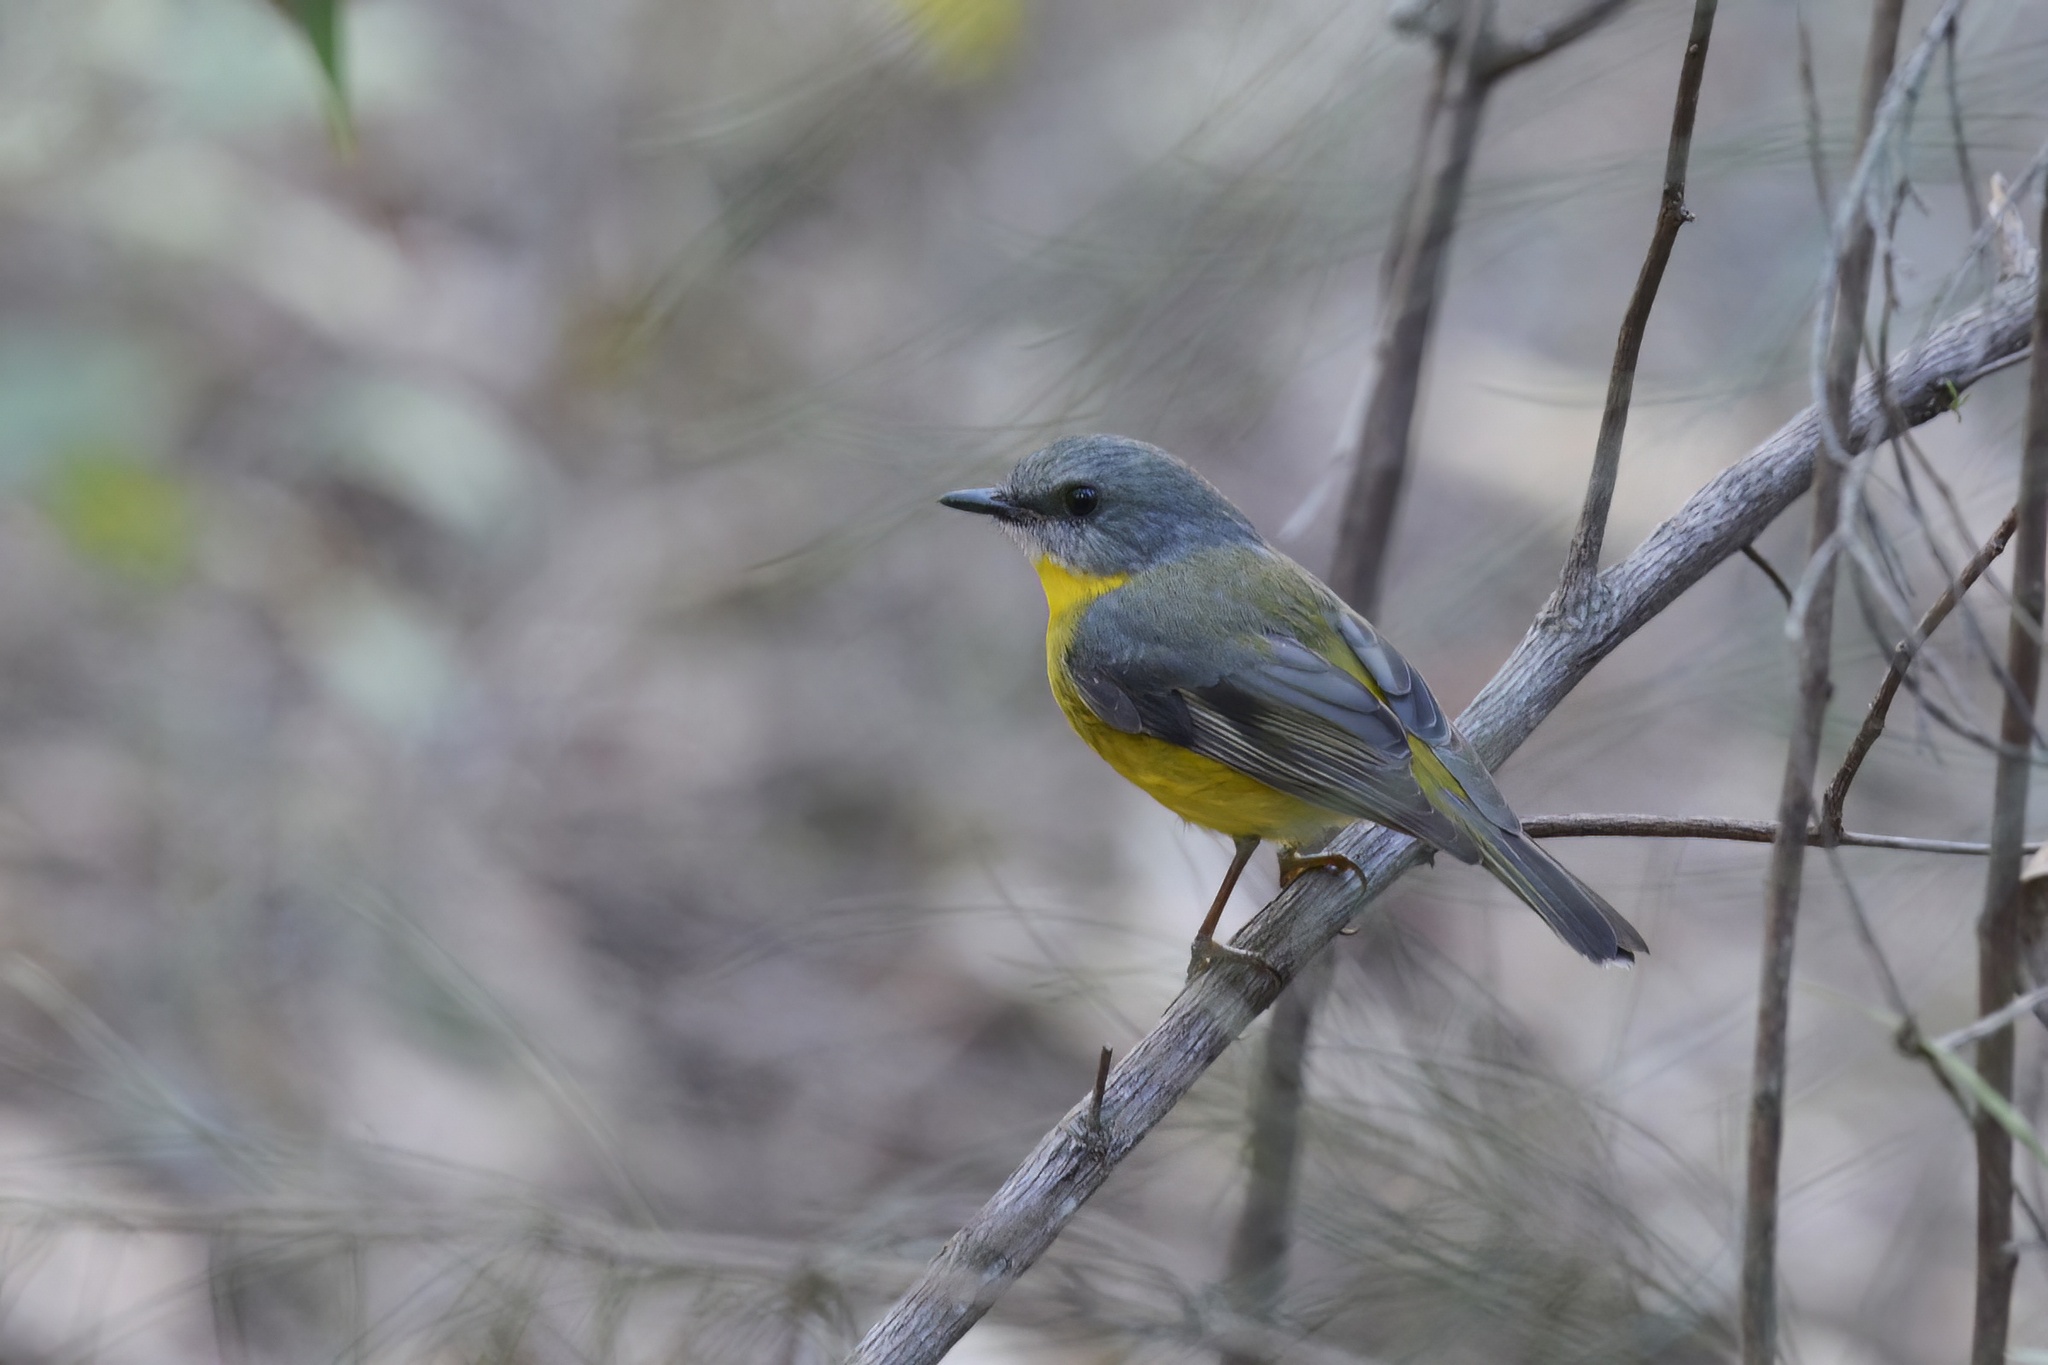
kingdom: Animalia
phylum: Chordata
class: Aves
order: Passeriformes
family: Petroicidae
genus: Eopsaltria
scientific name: Eopsaltria australis
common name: Eastern yellow robin
